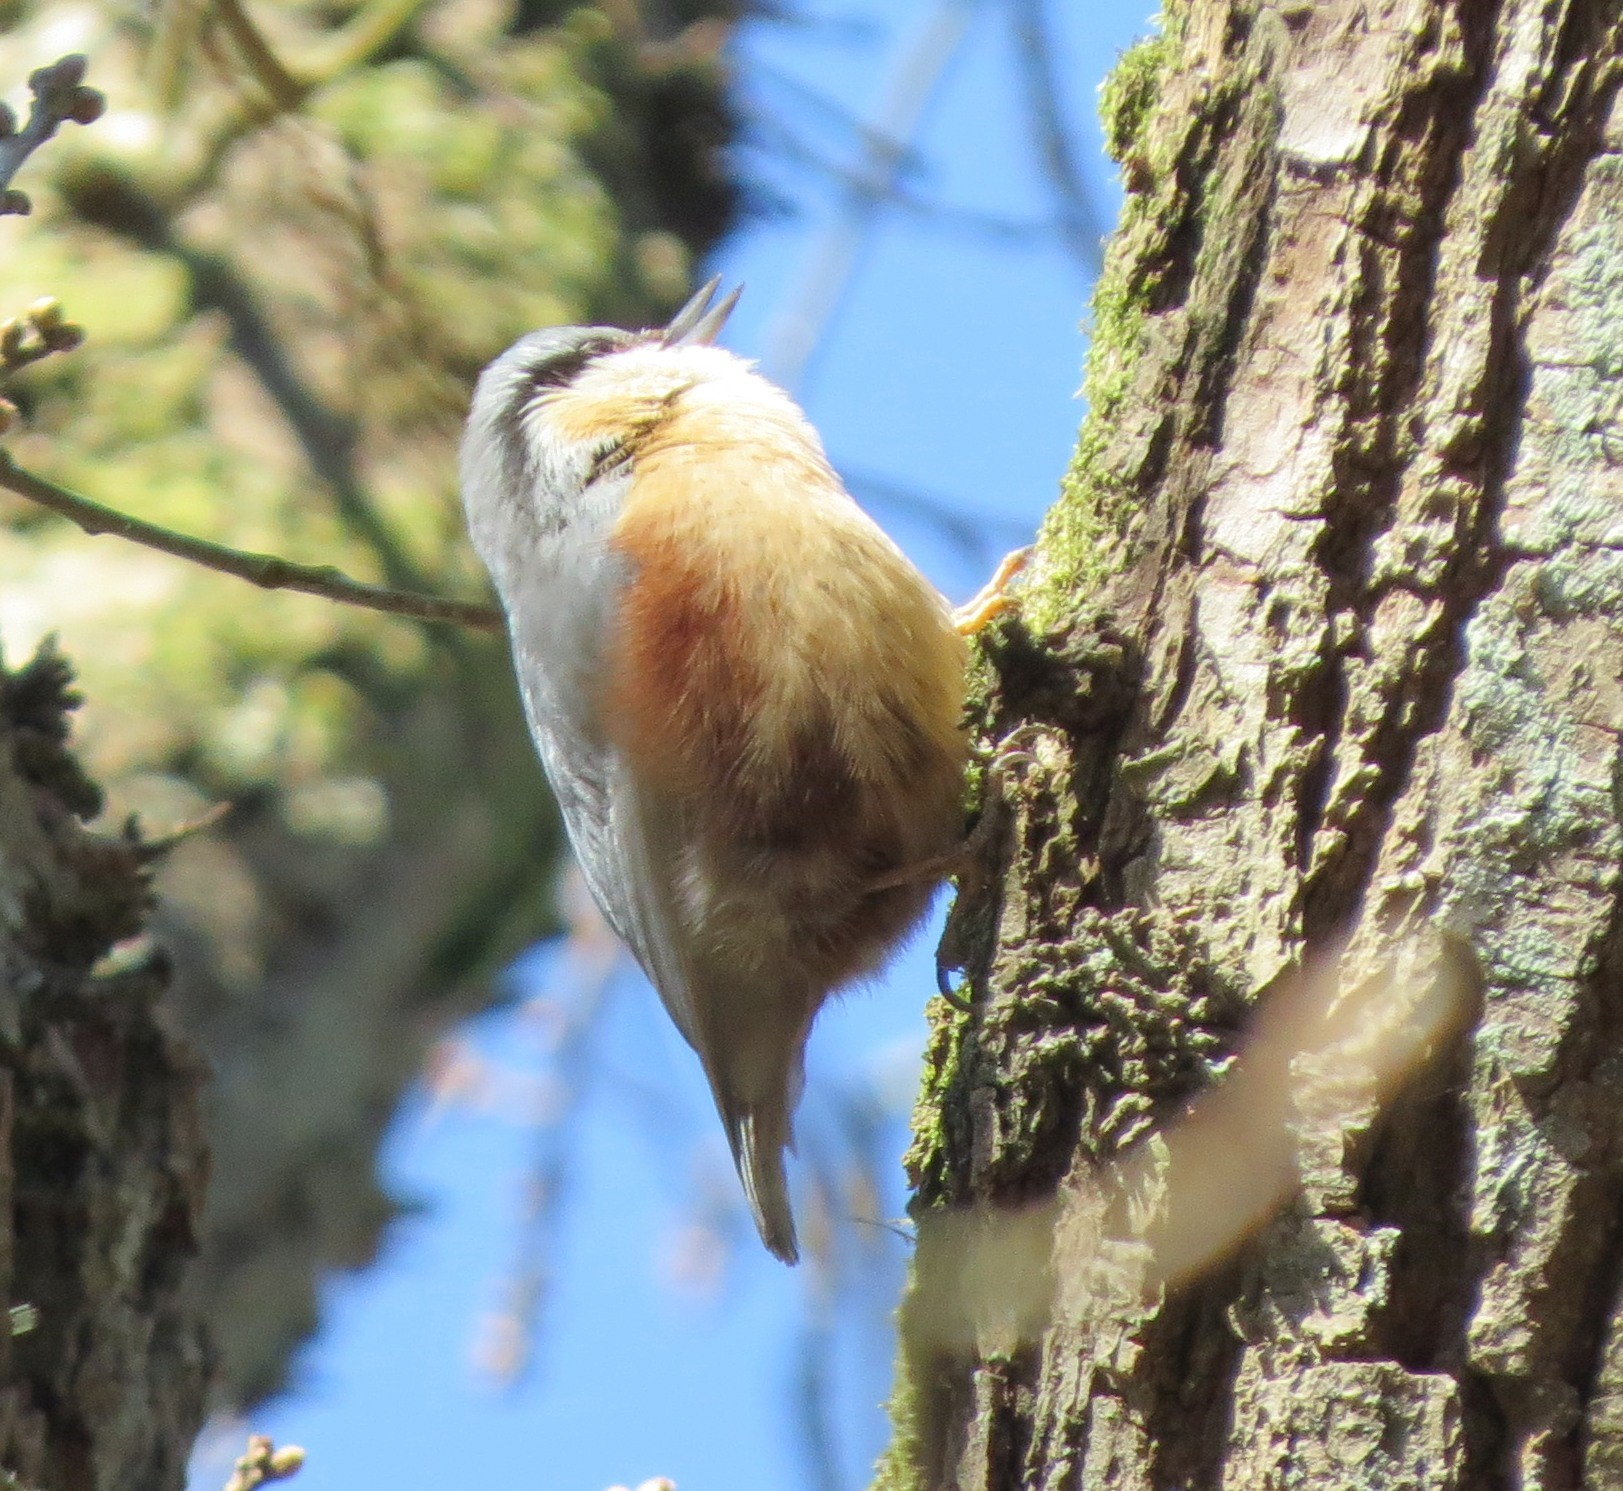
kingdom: Animalia
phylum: Chordata
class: Aves
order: Passeriformes
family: Sittidae
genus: Sitta
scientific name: Sitta europaea
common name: Eurasian nuthatch
